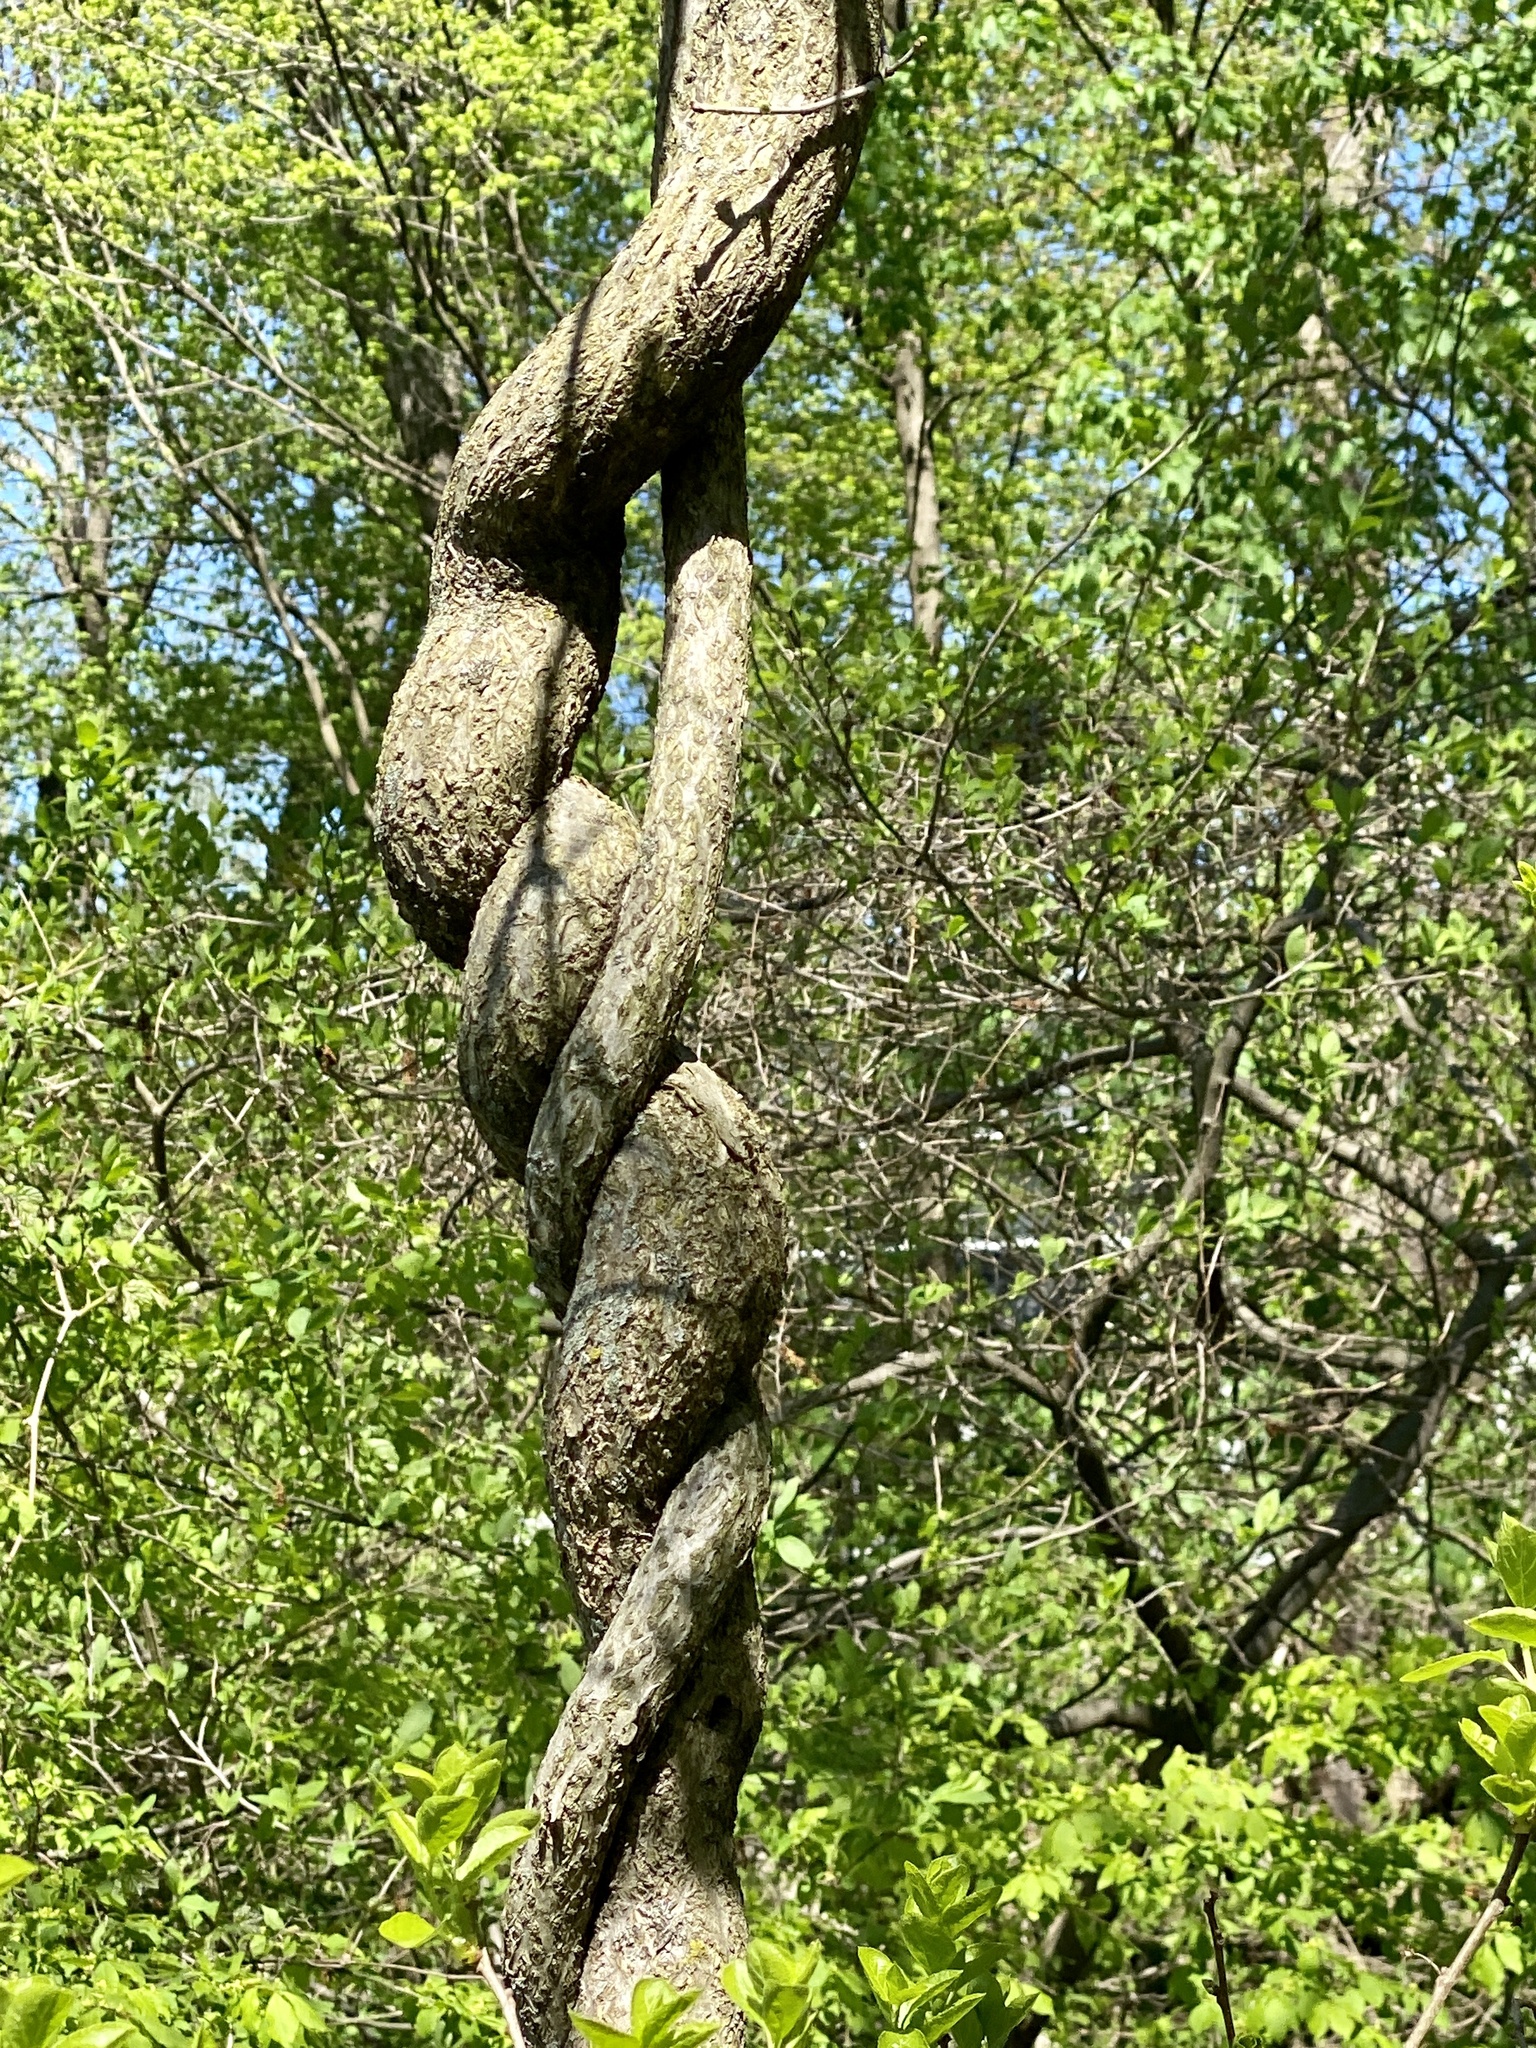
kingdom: Plantae
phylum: Tracheophyta
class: Magnoliopsida
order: Celastrales
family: Celastraceae
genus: Celastrus
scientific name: Celastrus orbiculatus
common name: Oriental bittersweet
